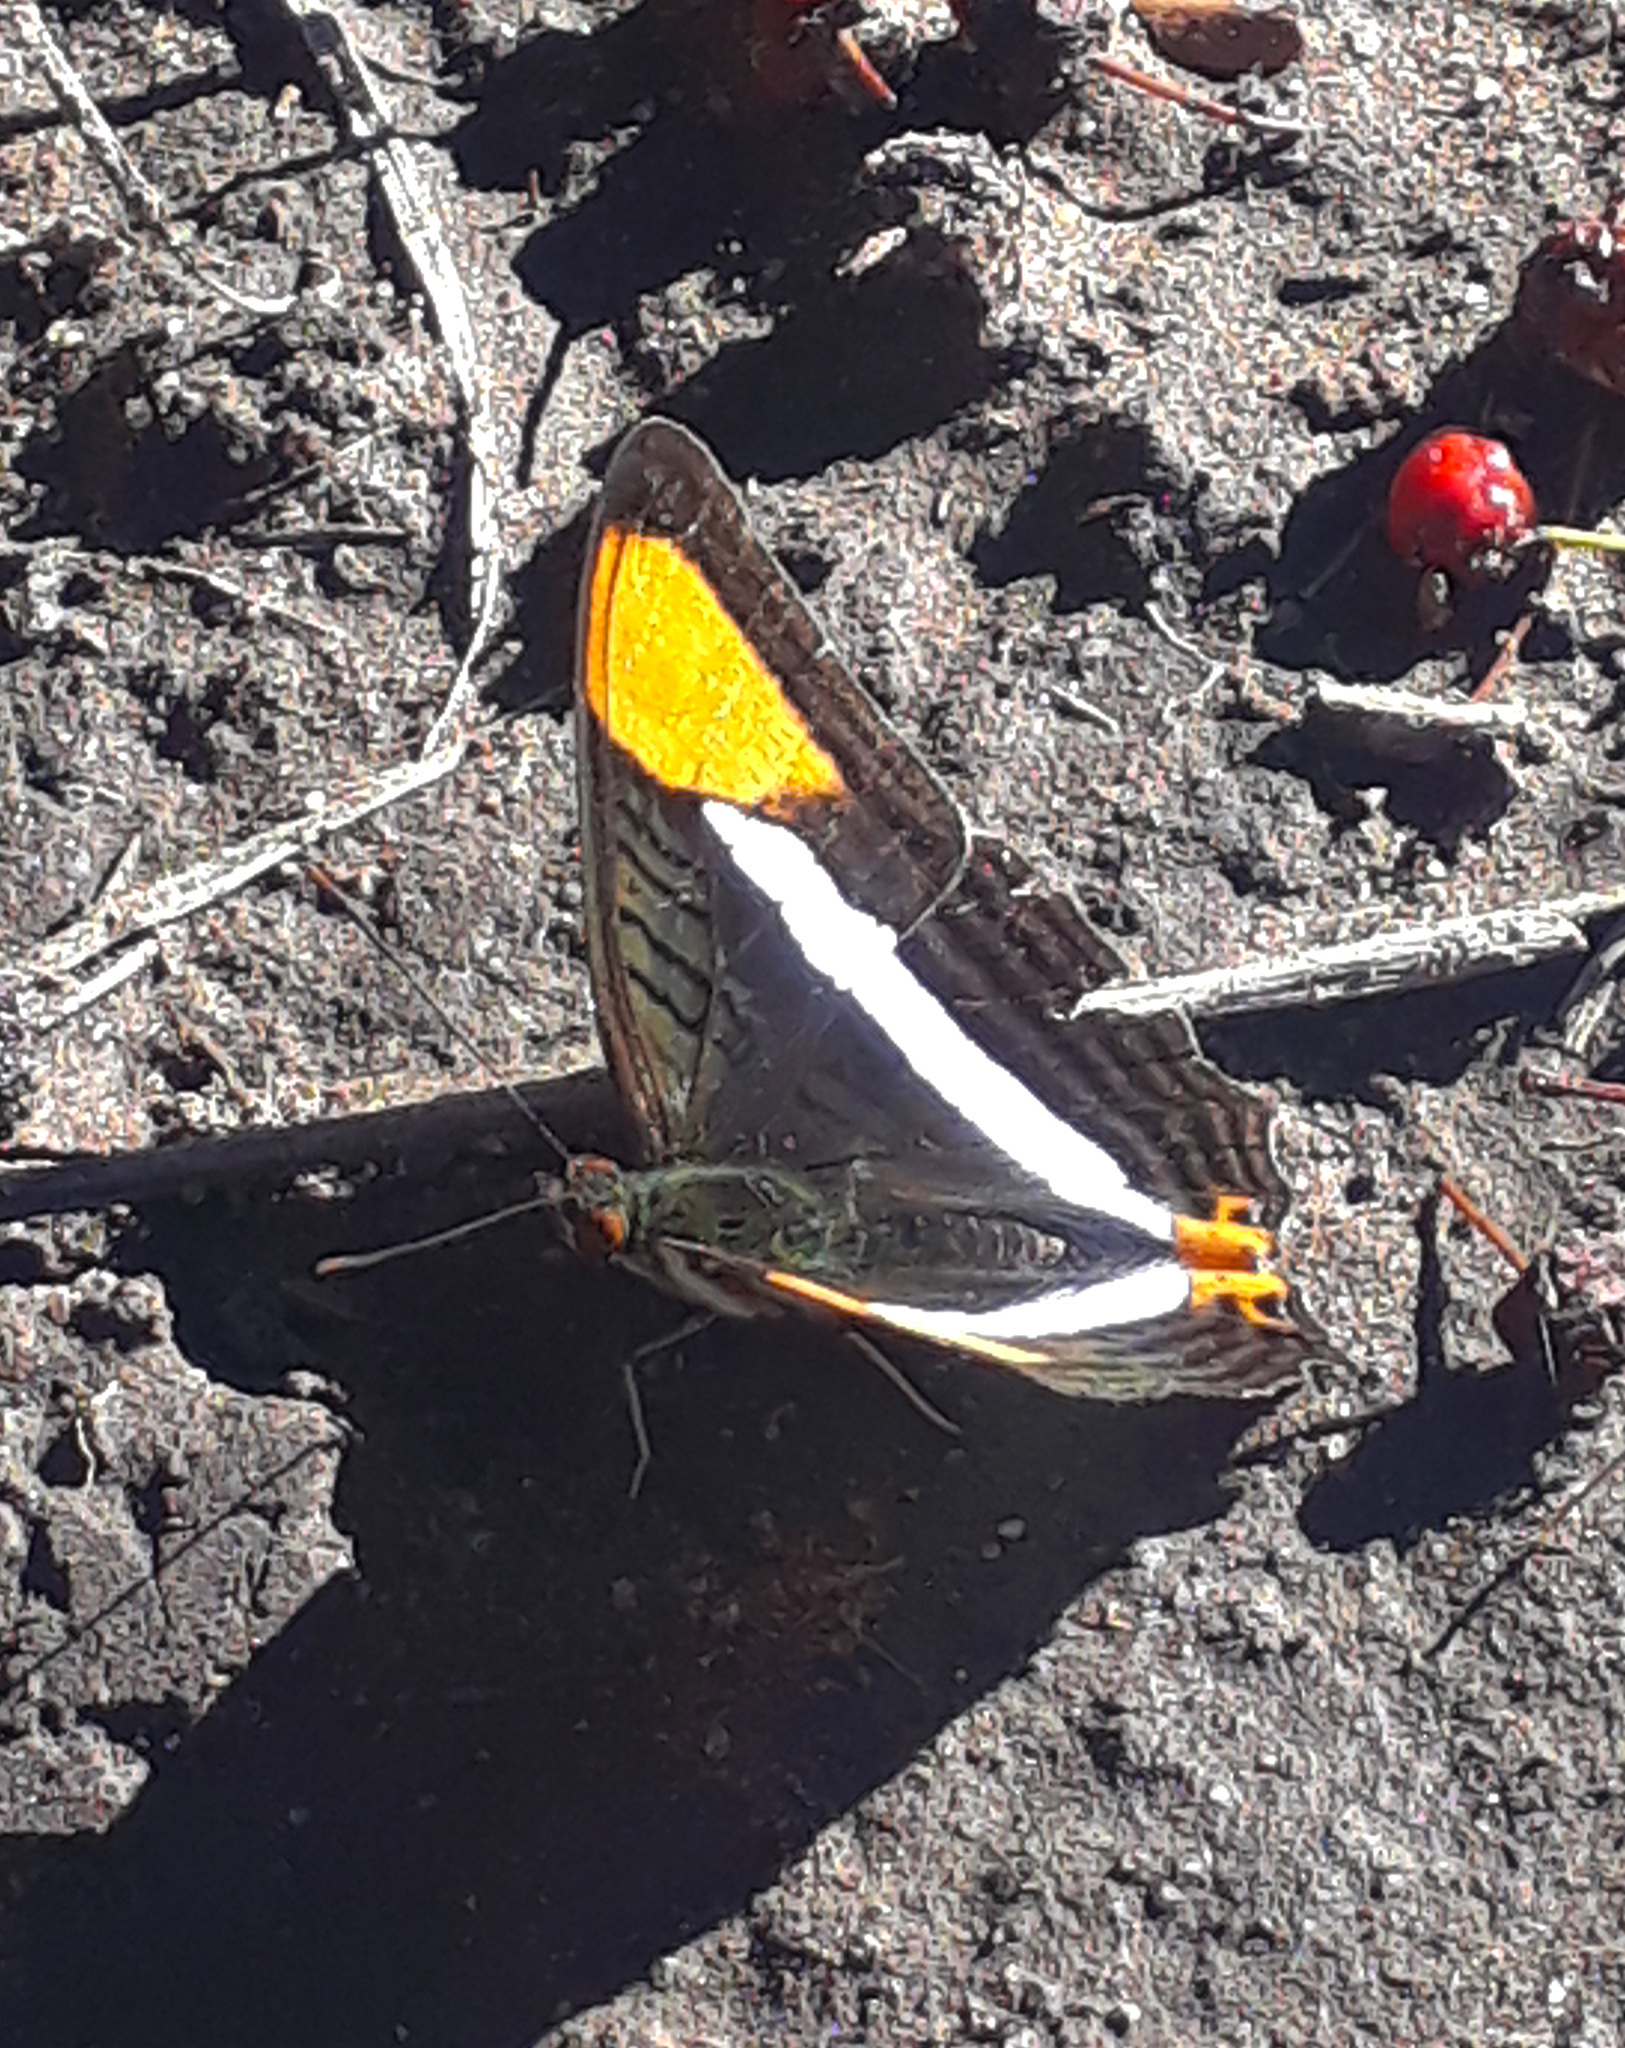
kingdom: Animalia
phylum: Arthropoda
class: Insecta
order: Lepidoptera
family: Nymphalidae
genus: Limenitis
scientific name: Limenitis syma
